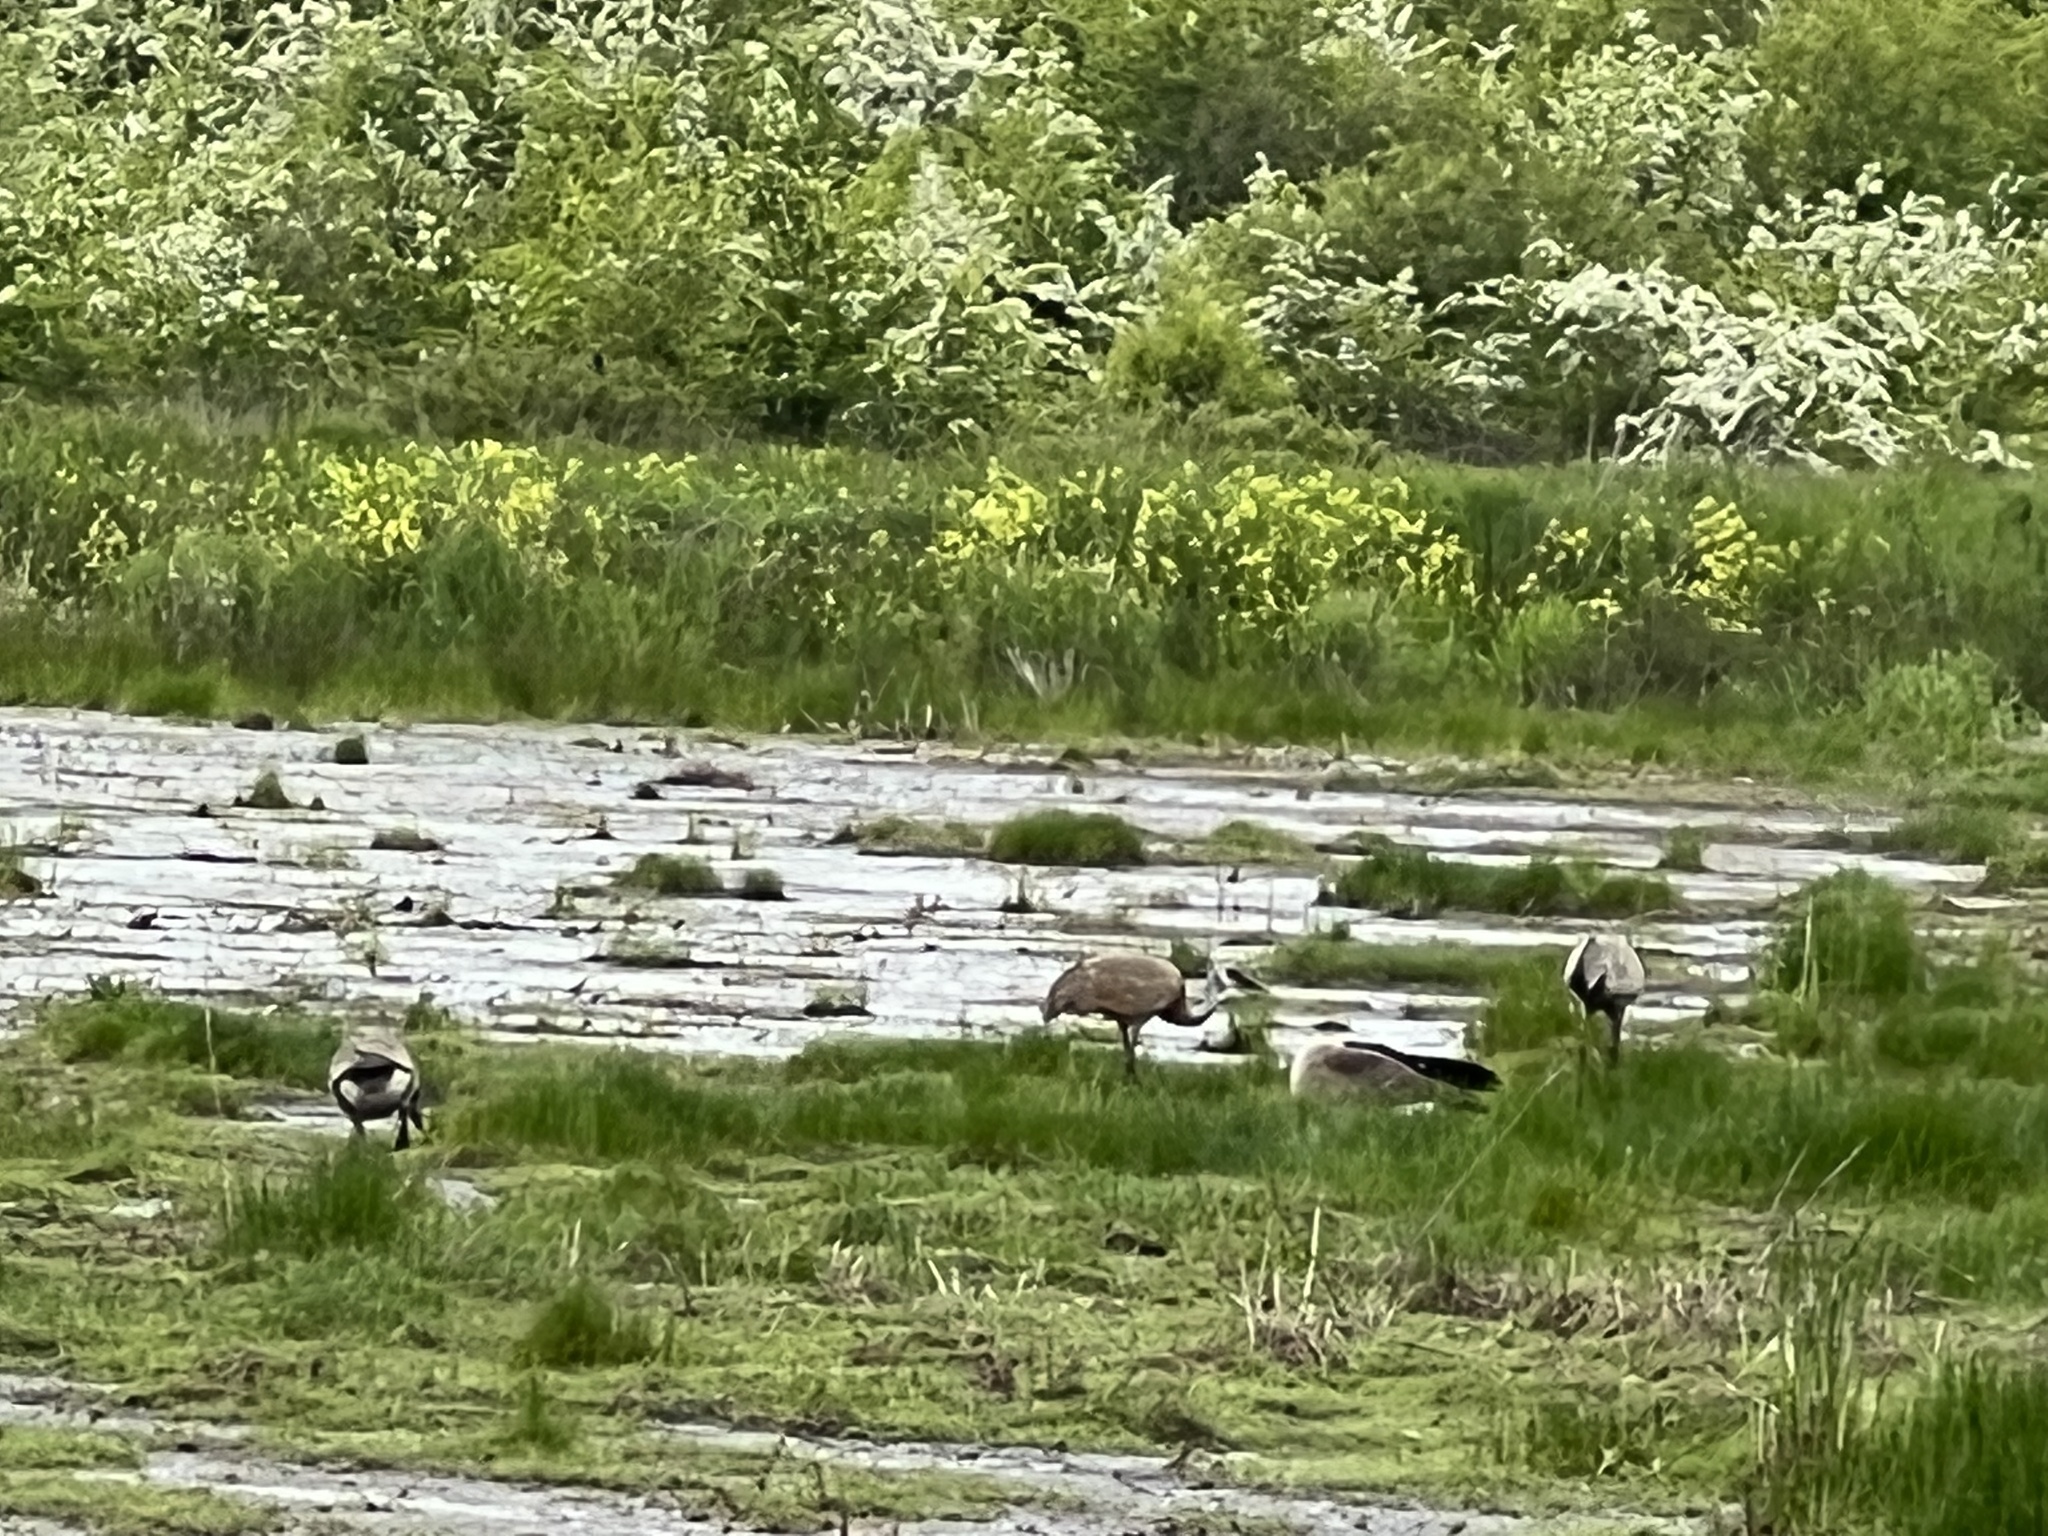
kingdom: Animalia
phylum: Chordata
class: Aves
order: Gruiformes
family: Gruidae
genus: Grus
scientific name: Grus canadensis
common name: Sandhill crane
